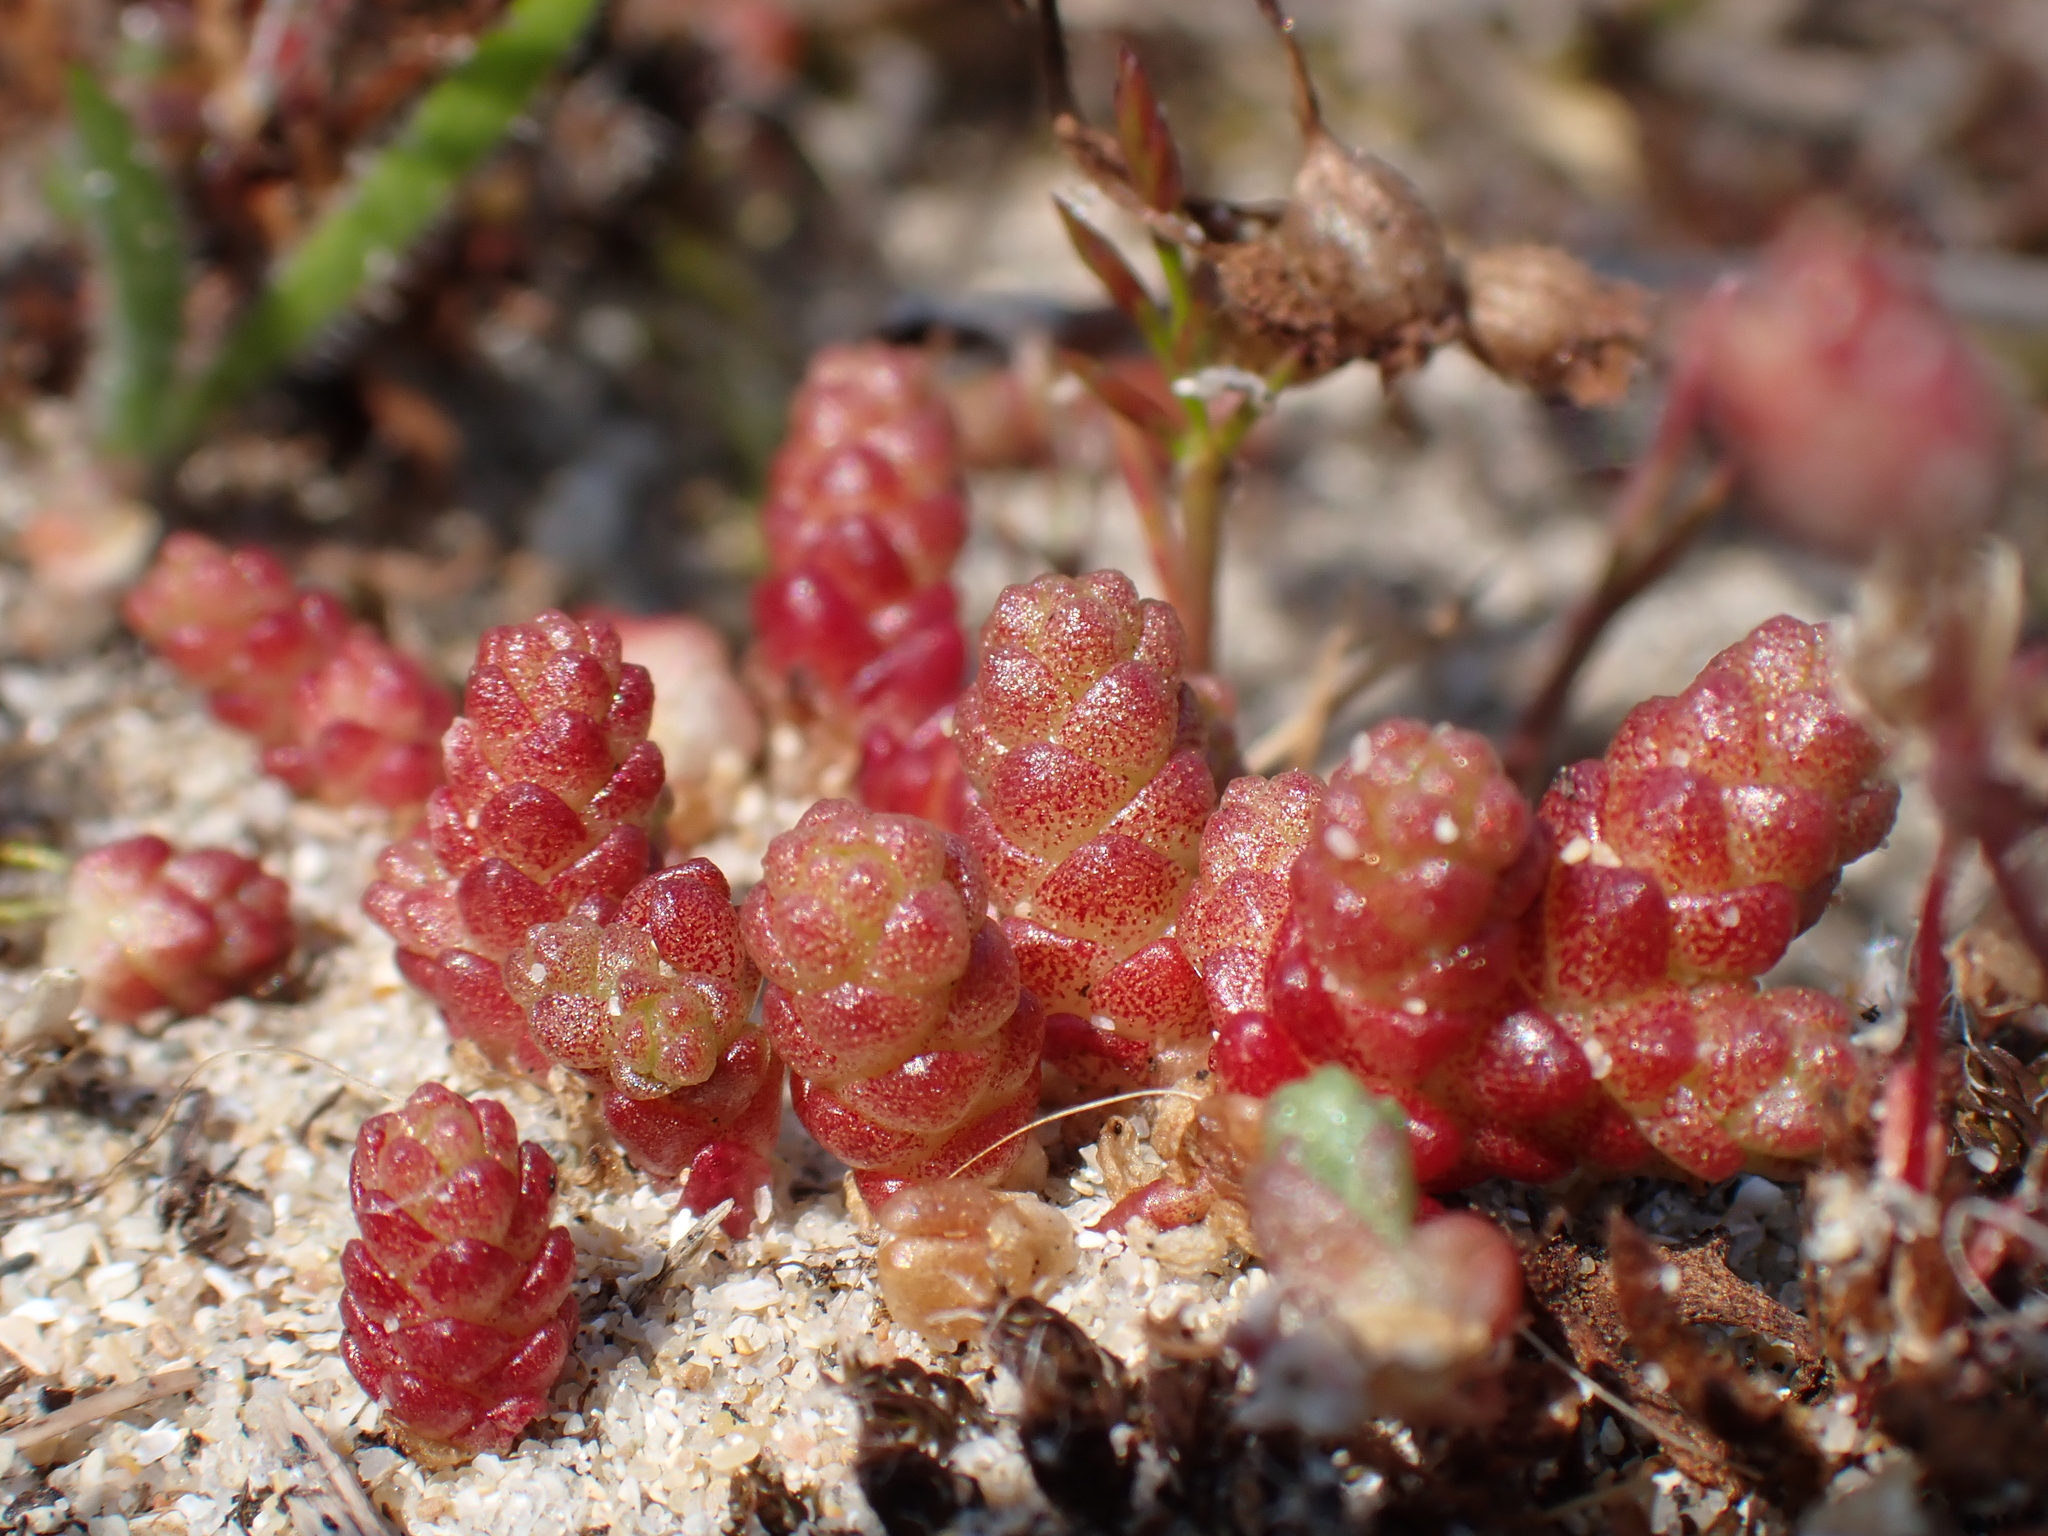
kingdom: Plantae
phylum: Tracheophyta
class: Magnoliopsida
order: Saxifragales
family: Crassulaceae
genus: Sedum
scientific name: Sedum acre
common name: Biting stonecrop
